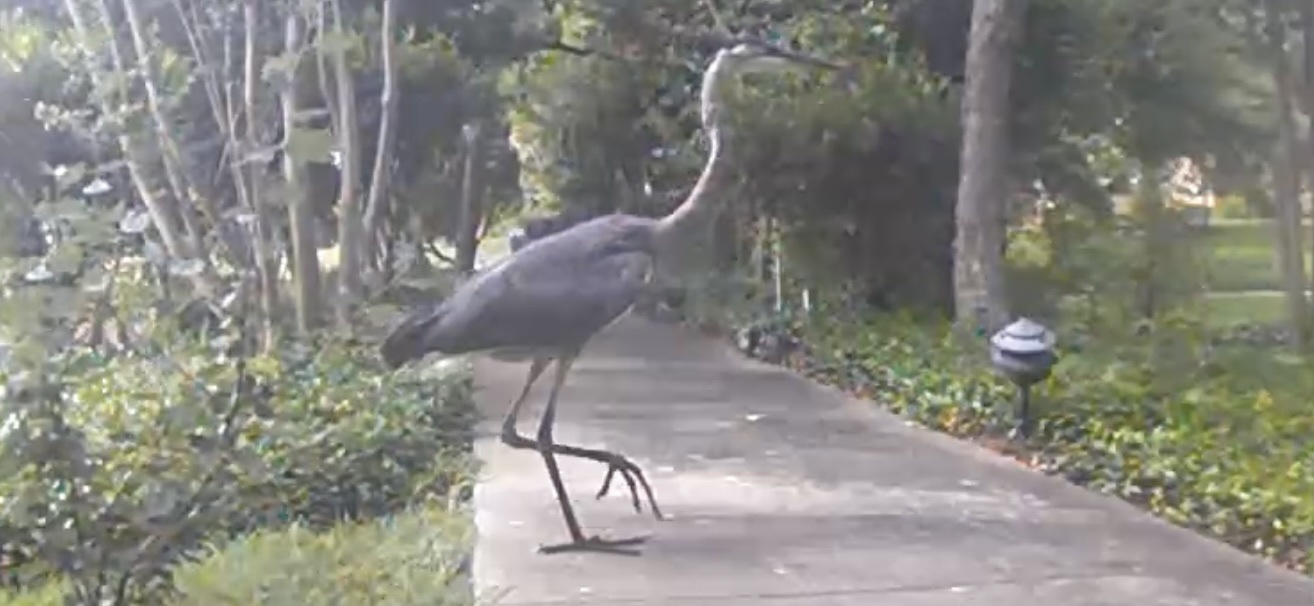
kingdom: Animalia
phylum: Chordata
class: Aves
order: Pelecaniformes
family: Ardeidae
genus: Ardea
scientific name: Ardea herodias
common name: Great blue heron
